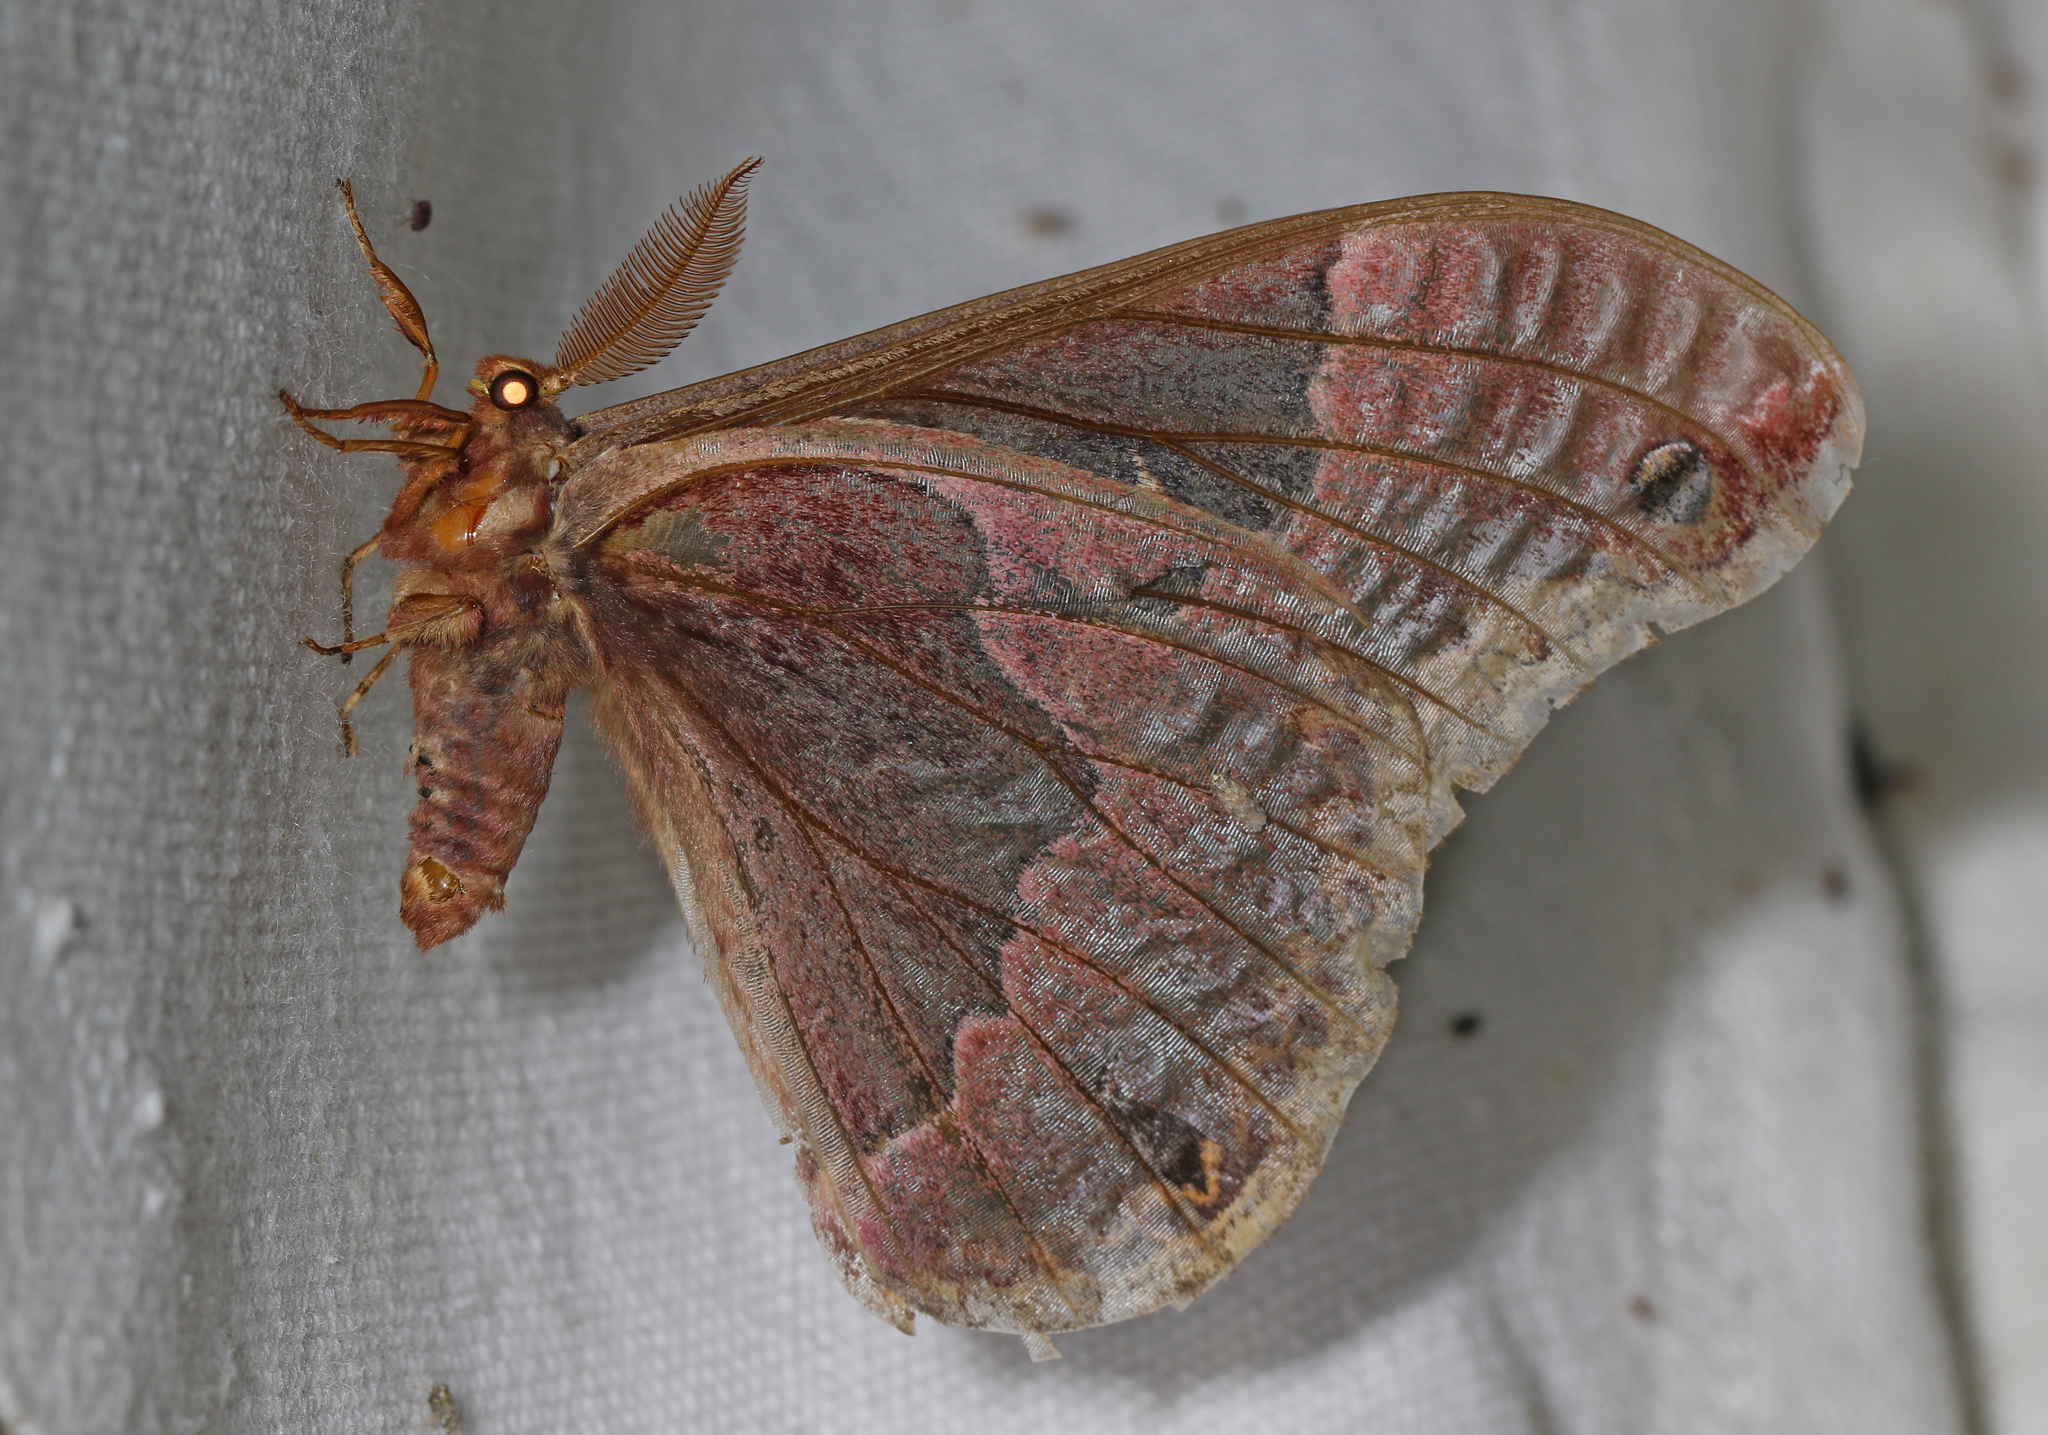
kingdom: Animalia
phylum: Arthropoda
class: Insecta
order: Lepidoptera
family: Saturniidae
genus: Callosamia
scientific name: Callosamia angulifera
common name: Tulip tree silkmoth
